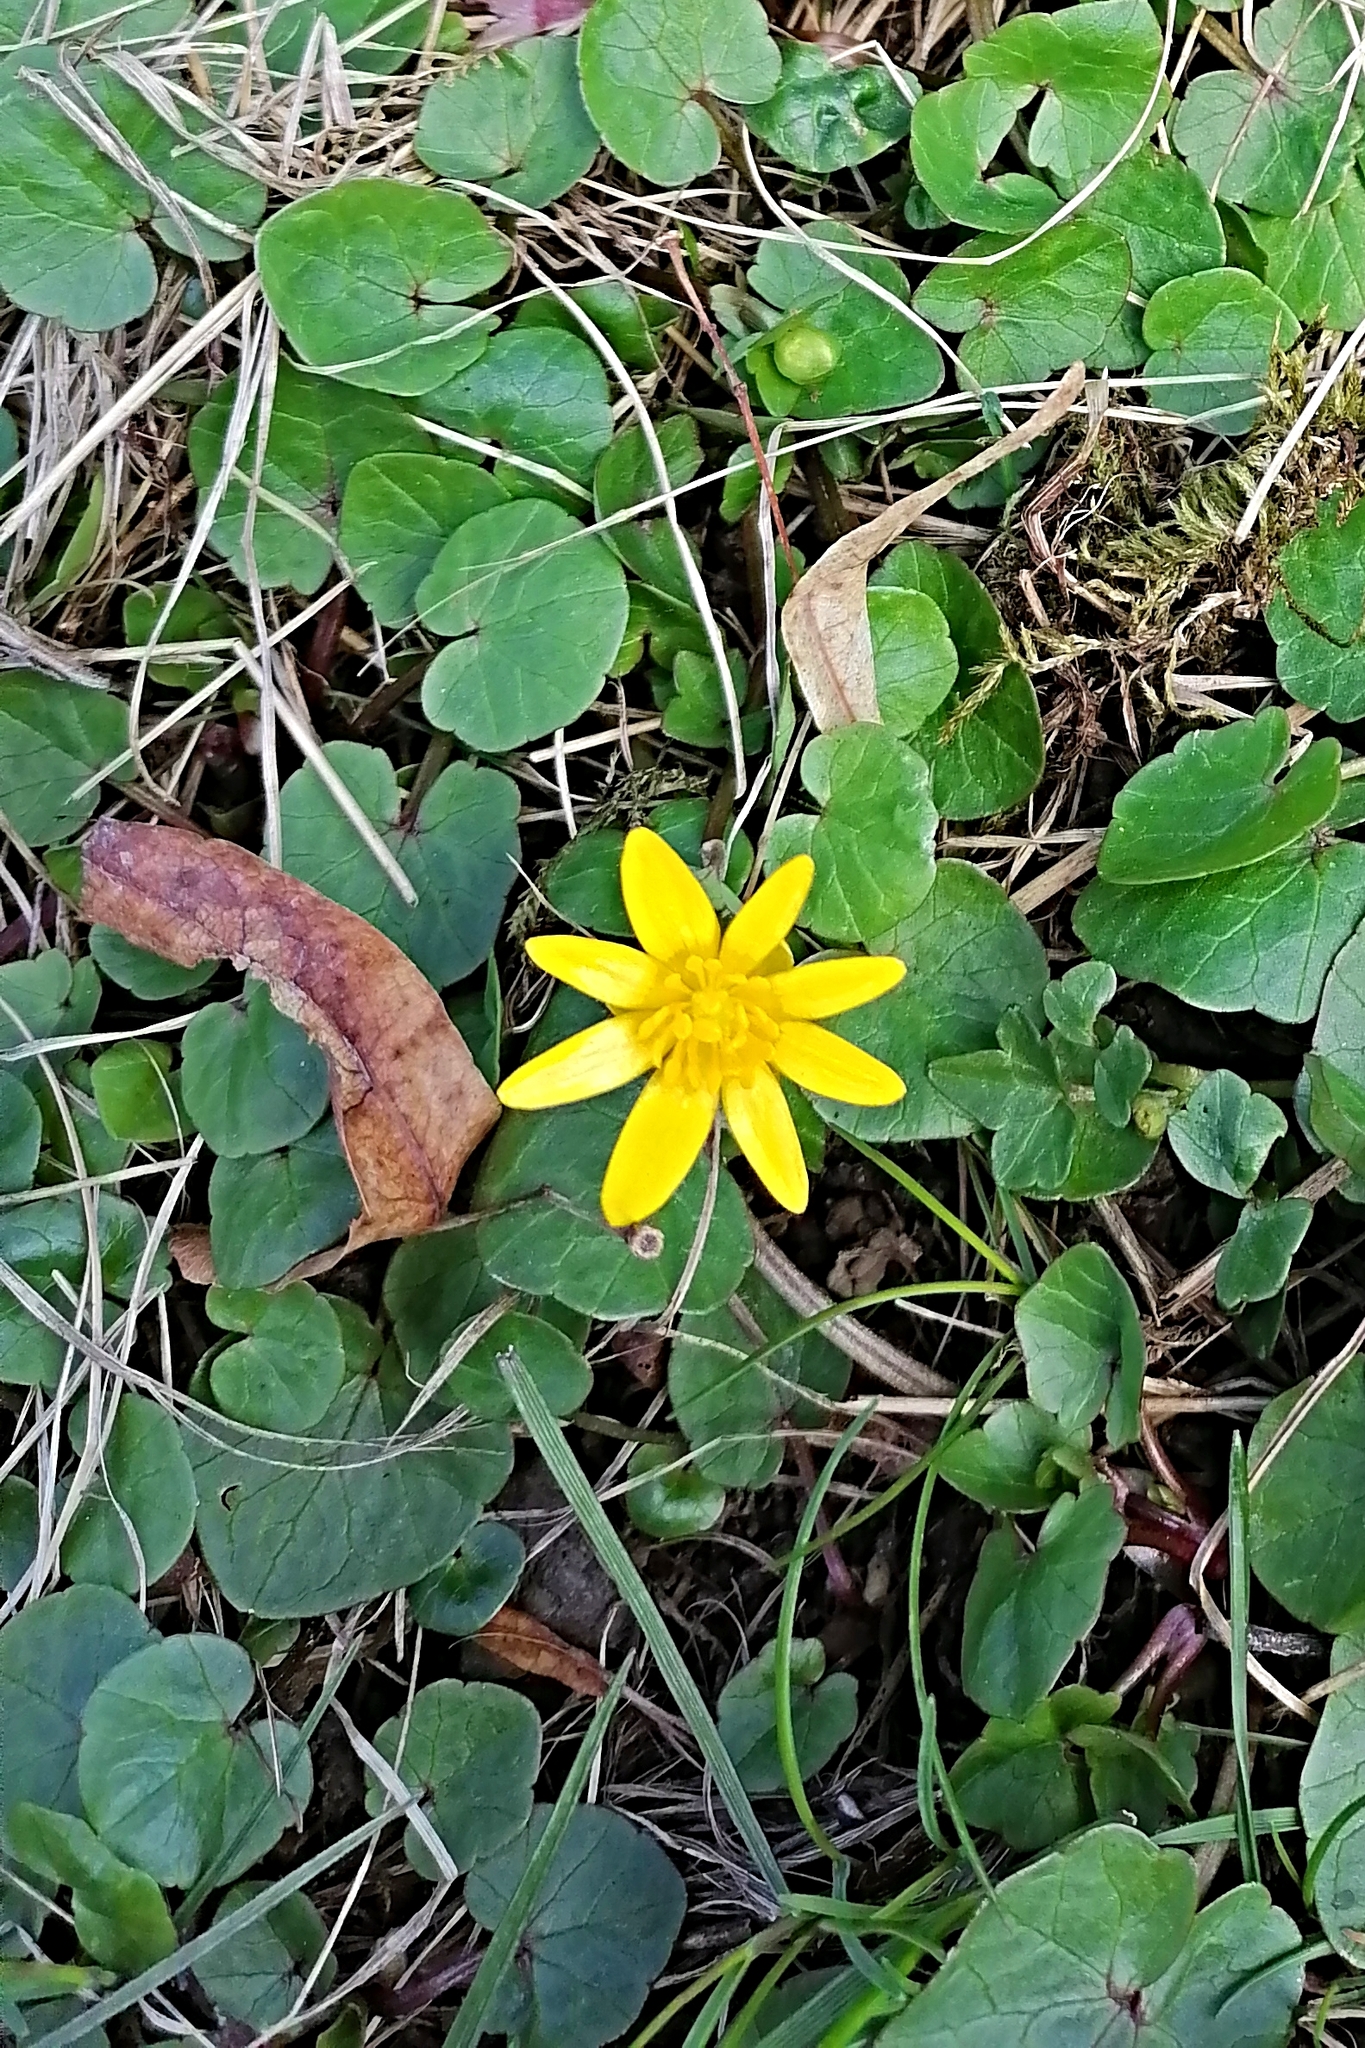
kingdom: Plantae
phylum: Tracheophyta
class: Magnoliopsida
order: Ranunculales
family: Ranunculaceae
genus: Ficaria
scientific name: Ficaria verna
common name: Lesser celandine
